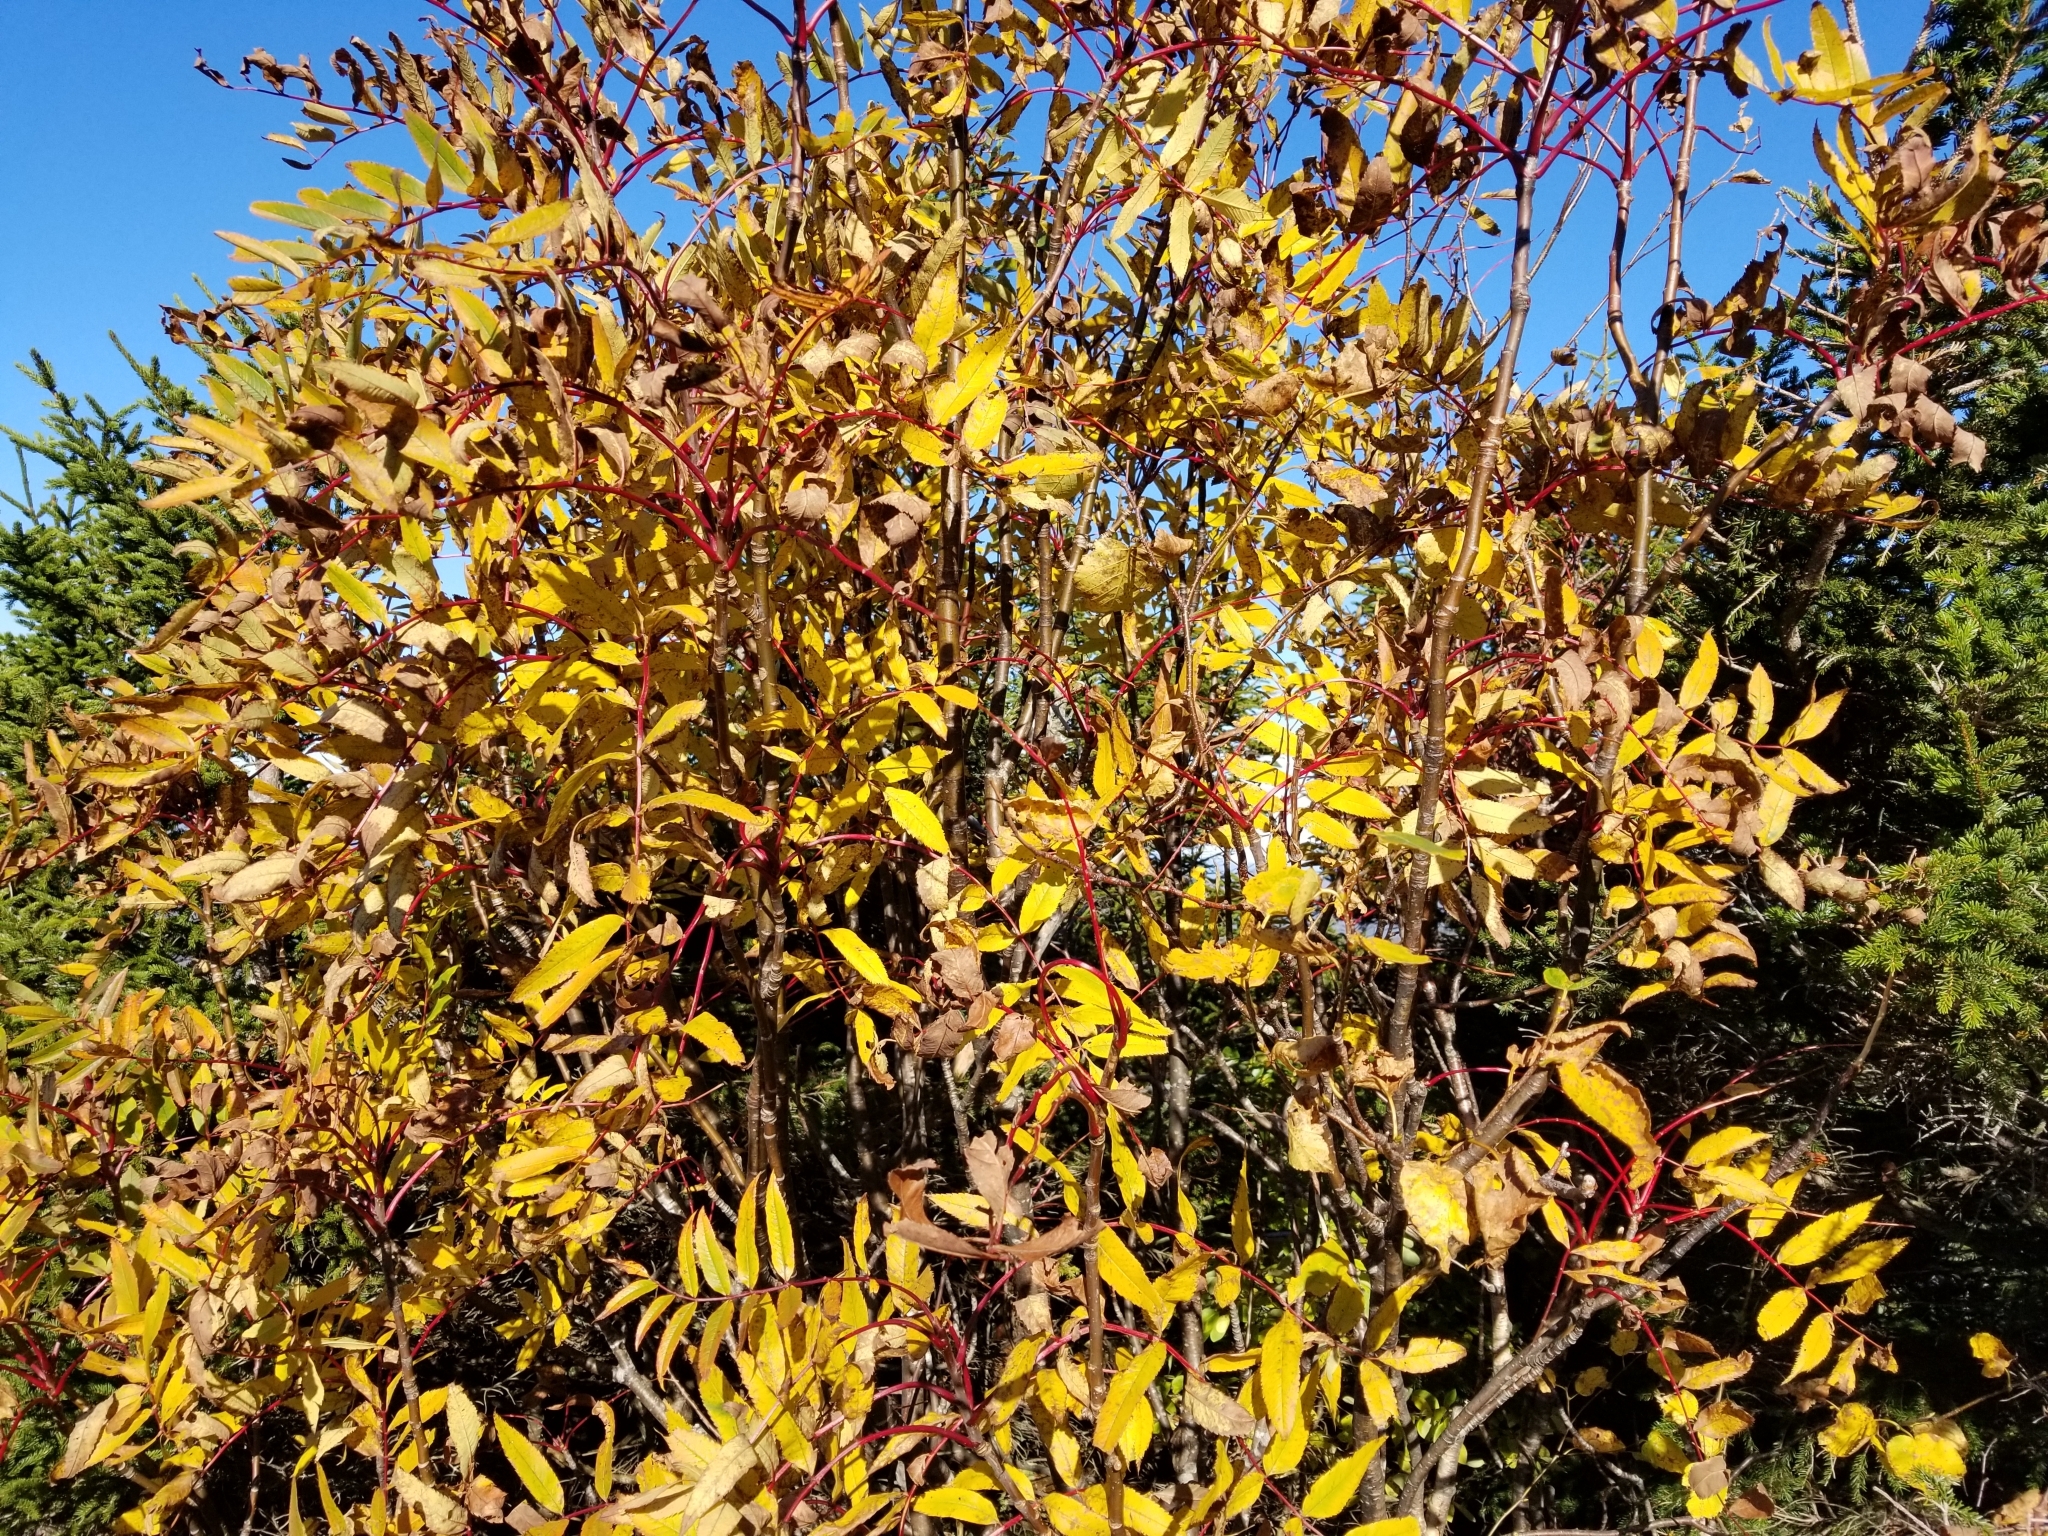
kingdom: Plantae
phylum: Tracheophyta
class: Magnoliopsida
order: Rosales
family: Rosaceae
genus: Sorbus
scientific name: Sorbus americana
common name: American mountain-ash
